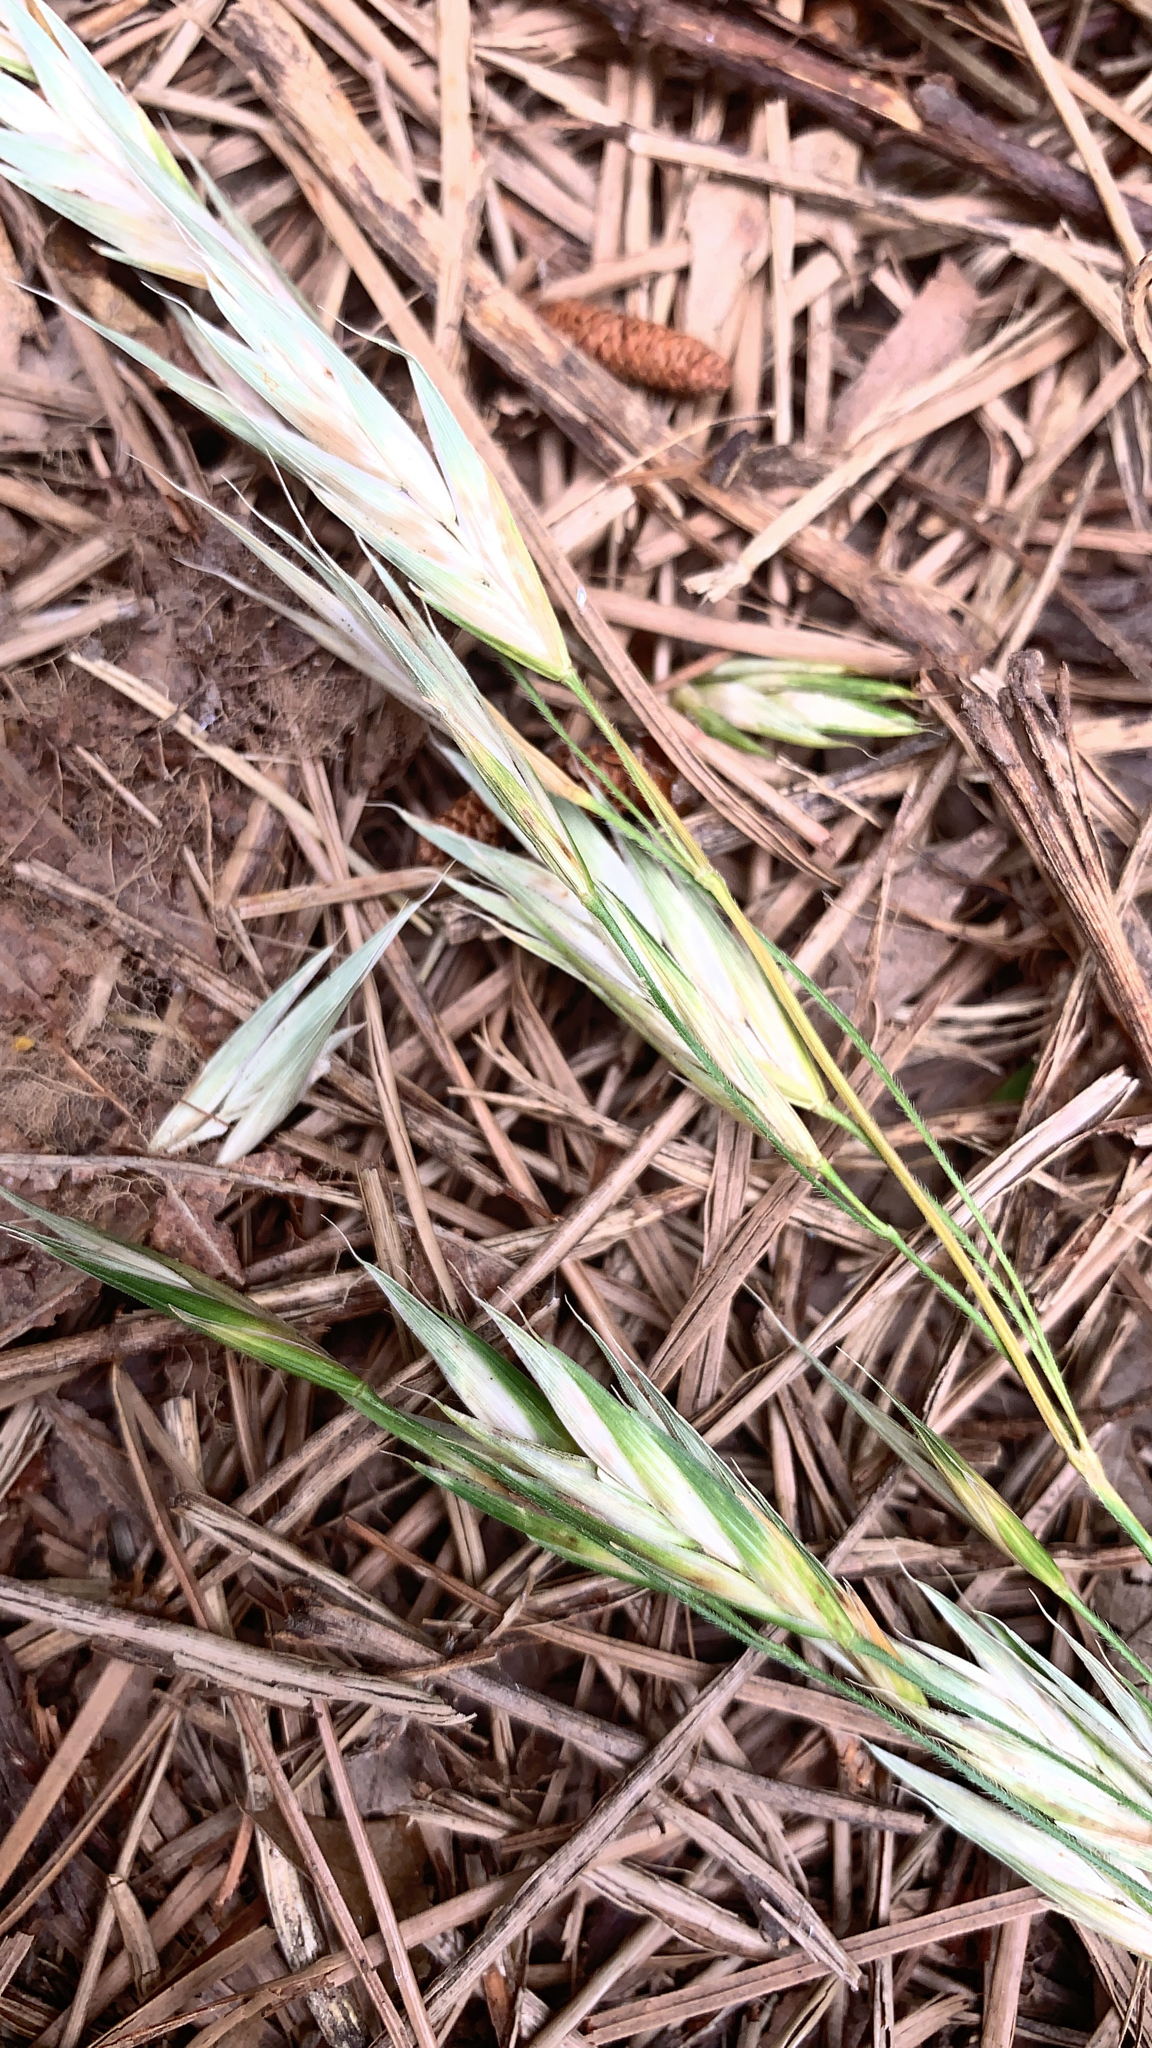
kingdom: Plantae
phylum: Tracheophyta
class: Liliopsida
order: Poales
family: Poaceae
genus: Bromus
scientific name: Bromus catharticus
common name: Rescuegrass
